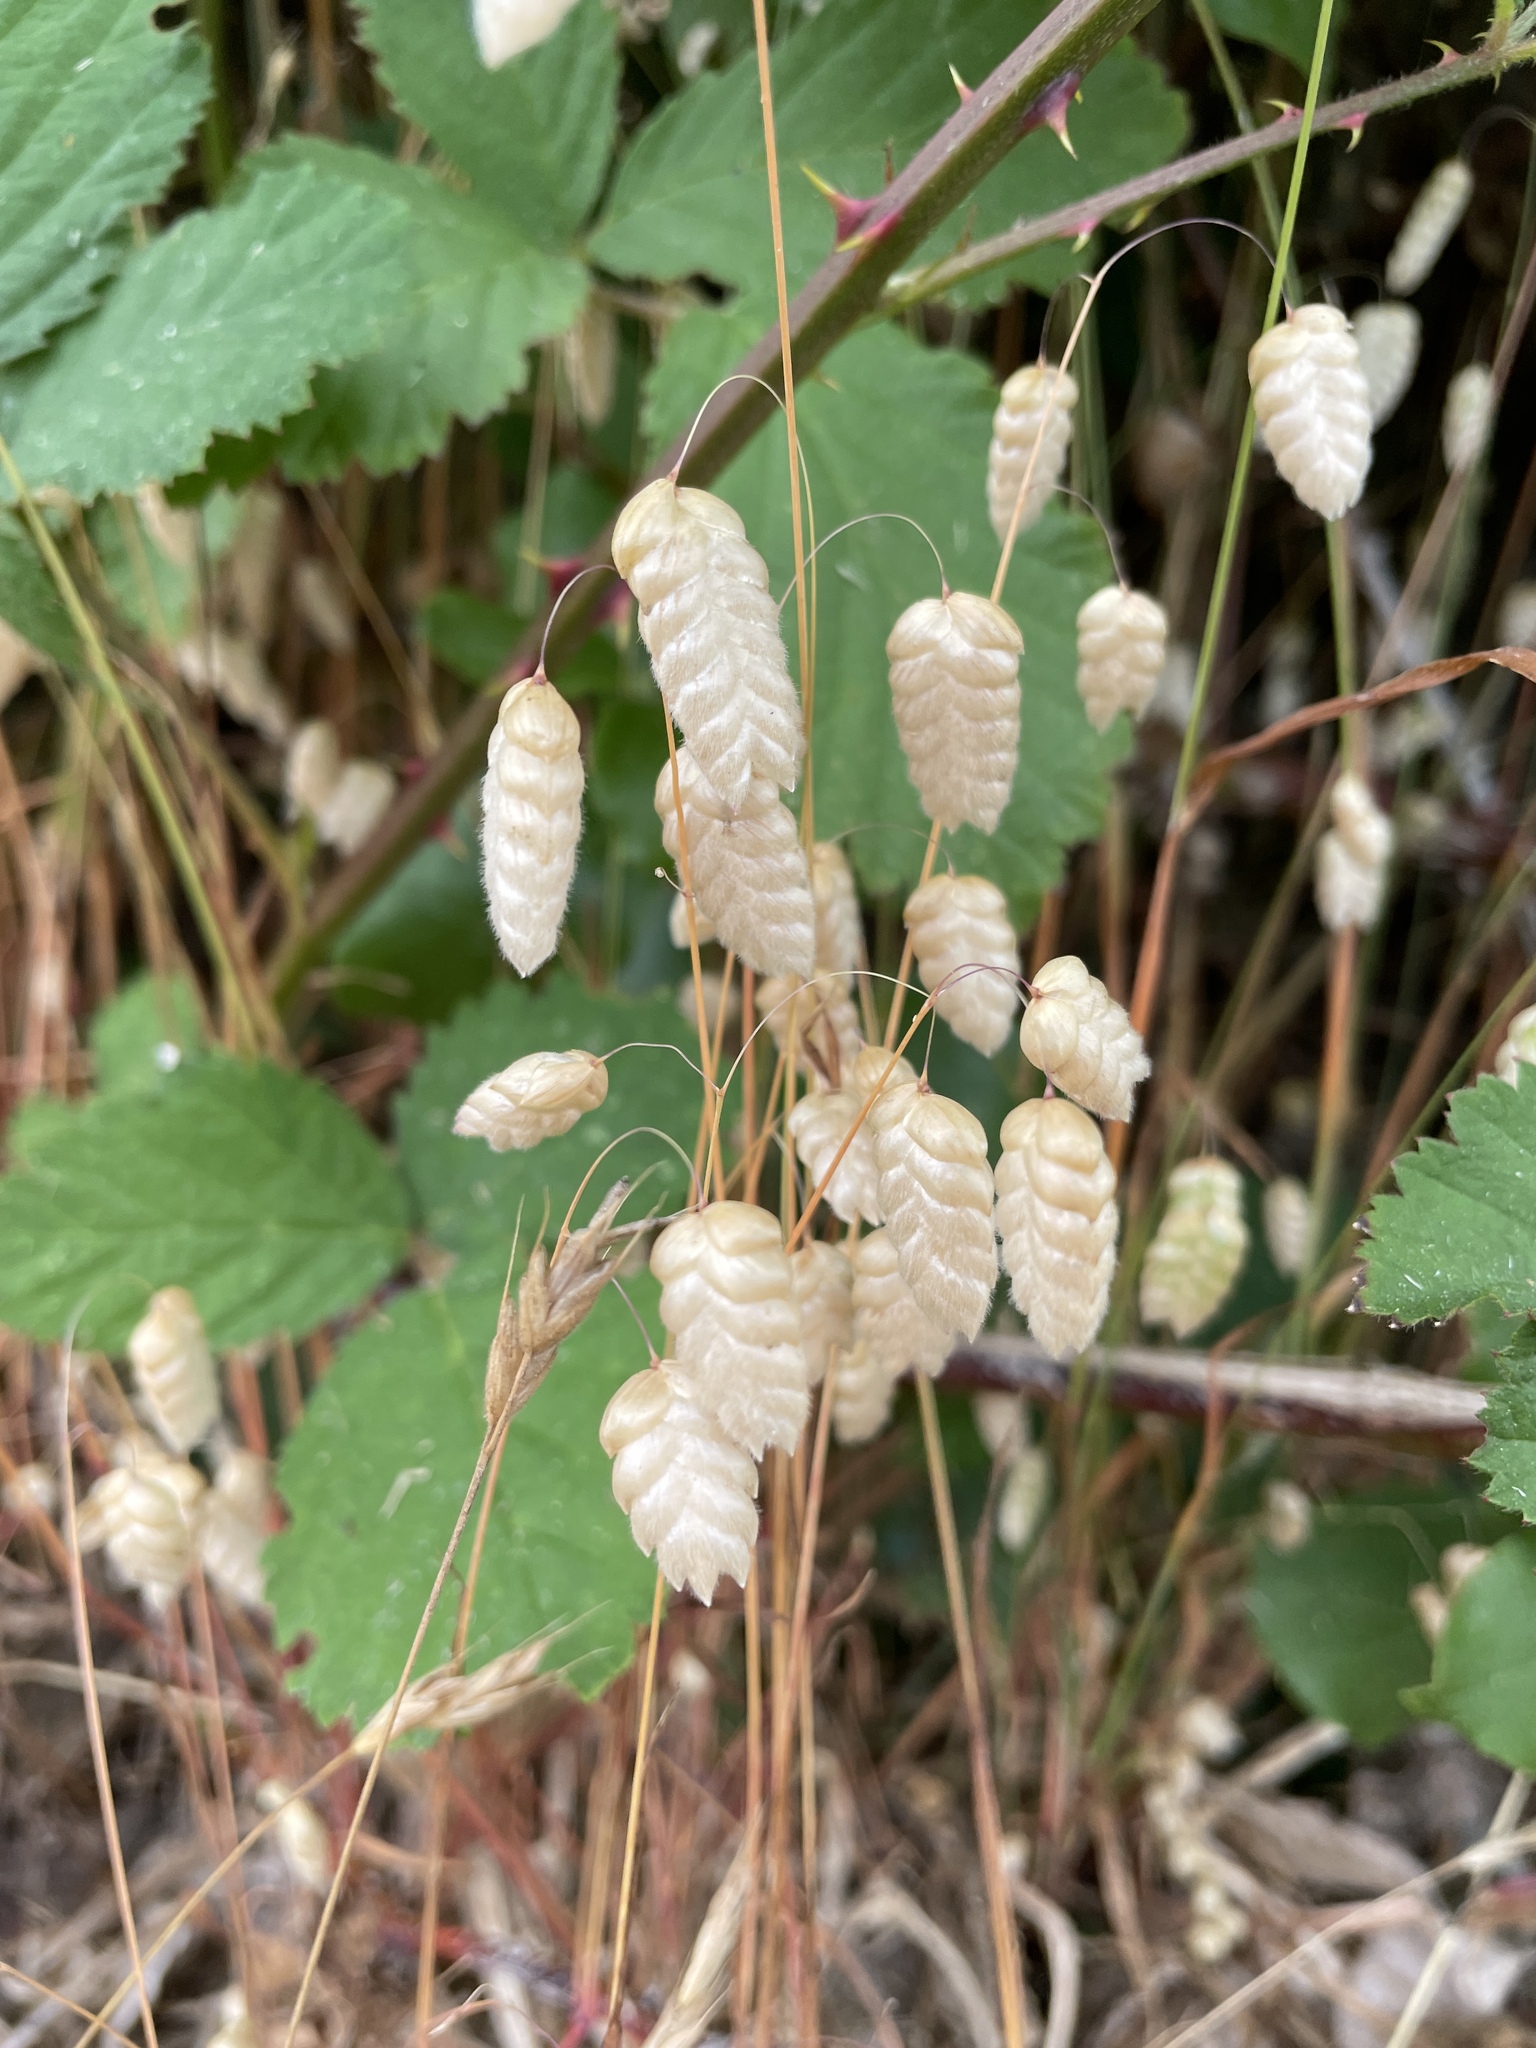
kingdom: Plantae
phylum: Tracheophyta
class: Liliopsida
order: Poales
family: Poaceae
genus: Briza
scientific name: Briza maxima
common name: Big quakinggrass
